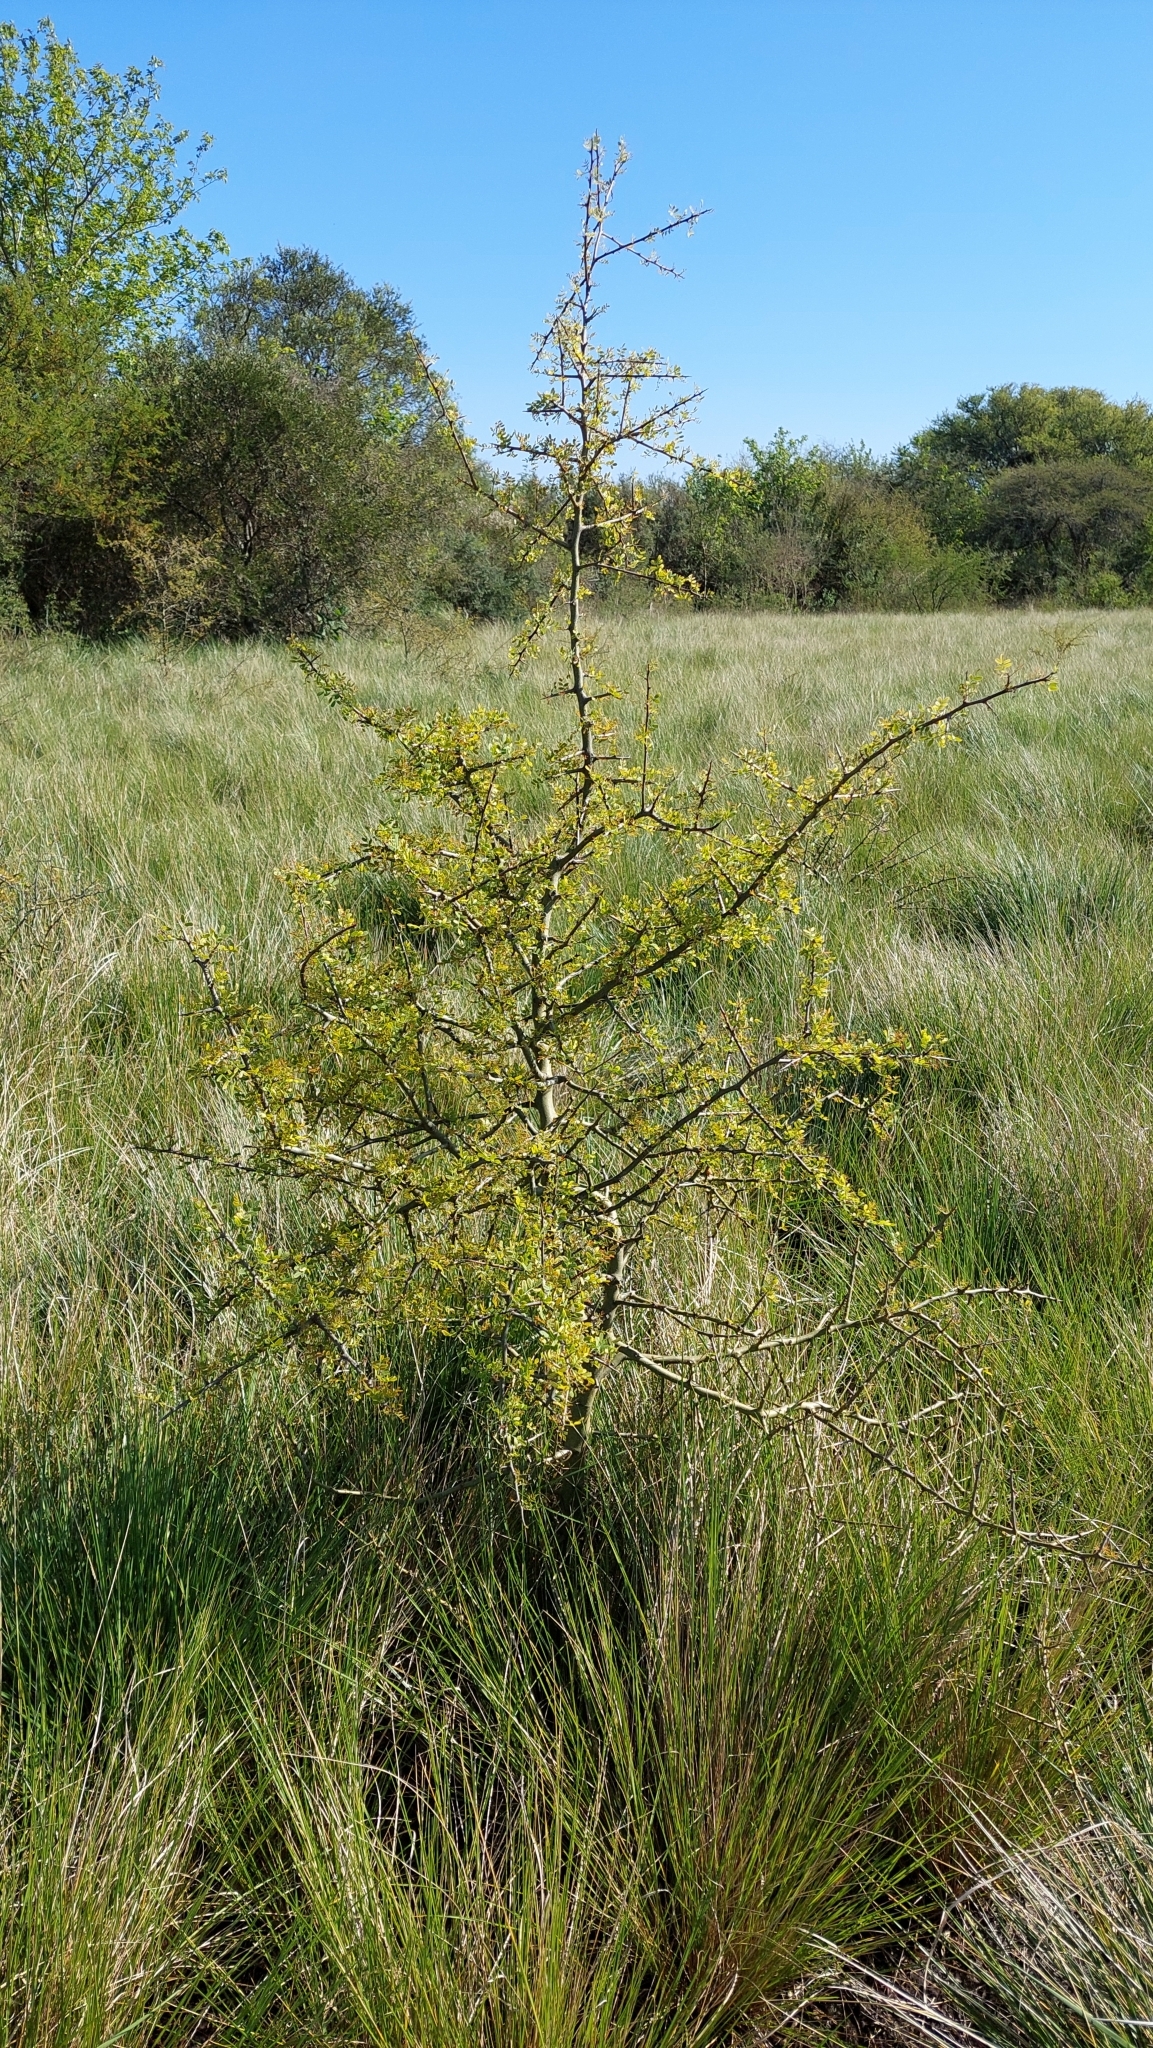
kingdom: Plantae
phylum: Tracheophyta
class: Magnoliopsida
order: Fabales
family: Fabaceae
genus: Geoffroea
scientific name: Geoffroea decorticans
